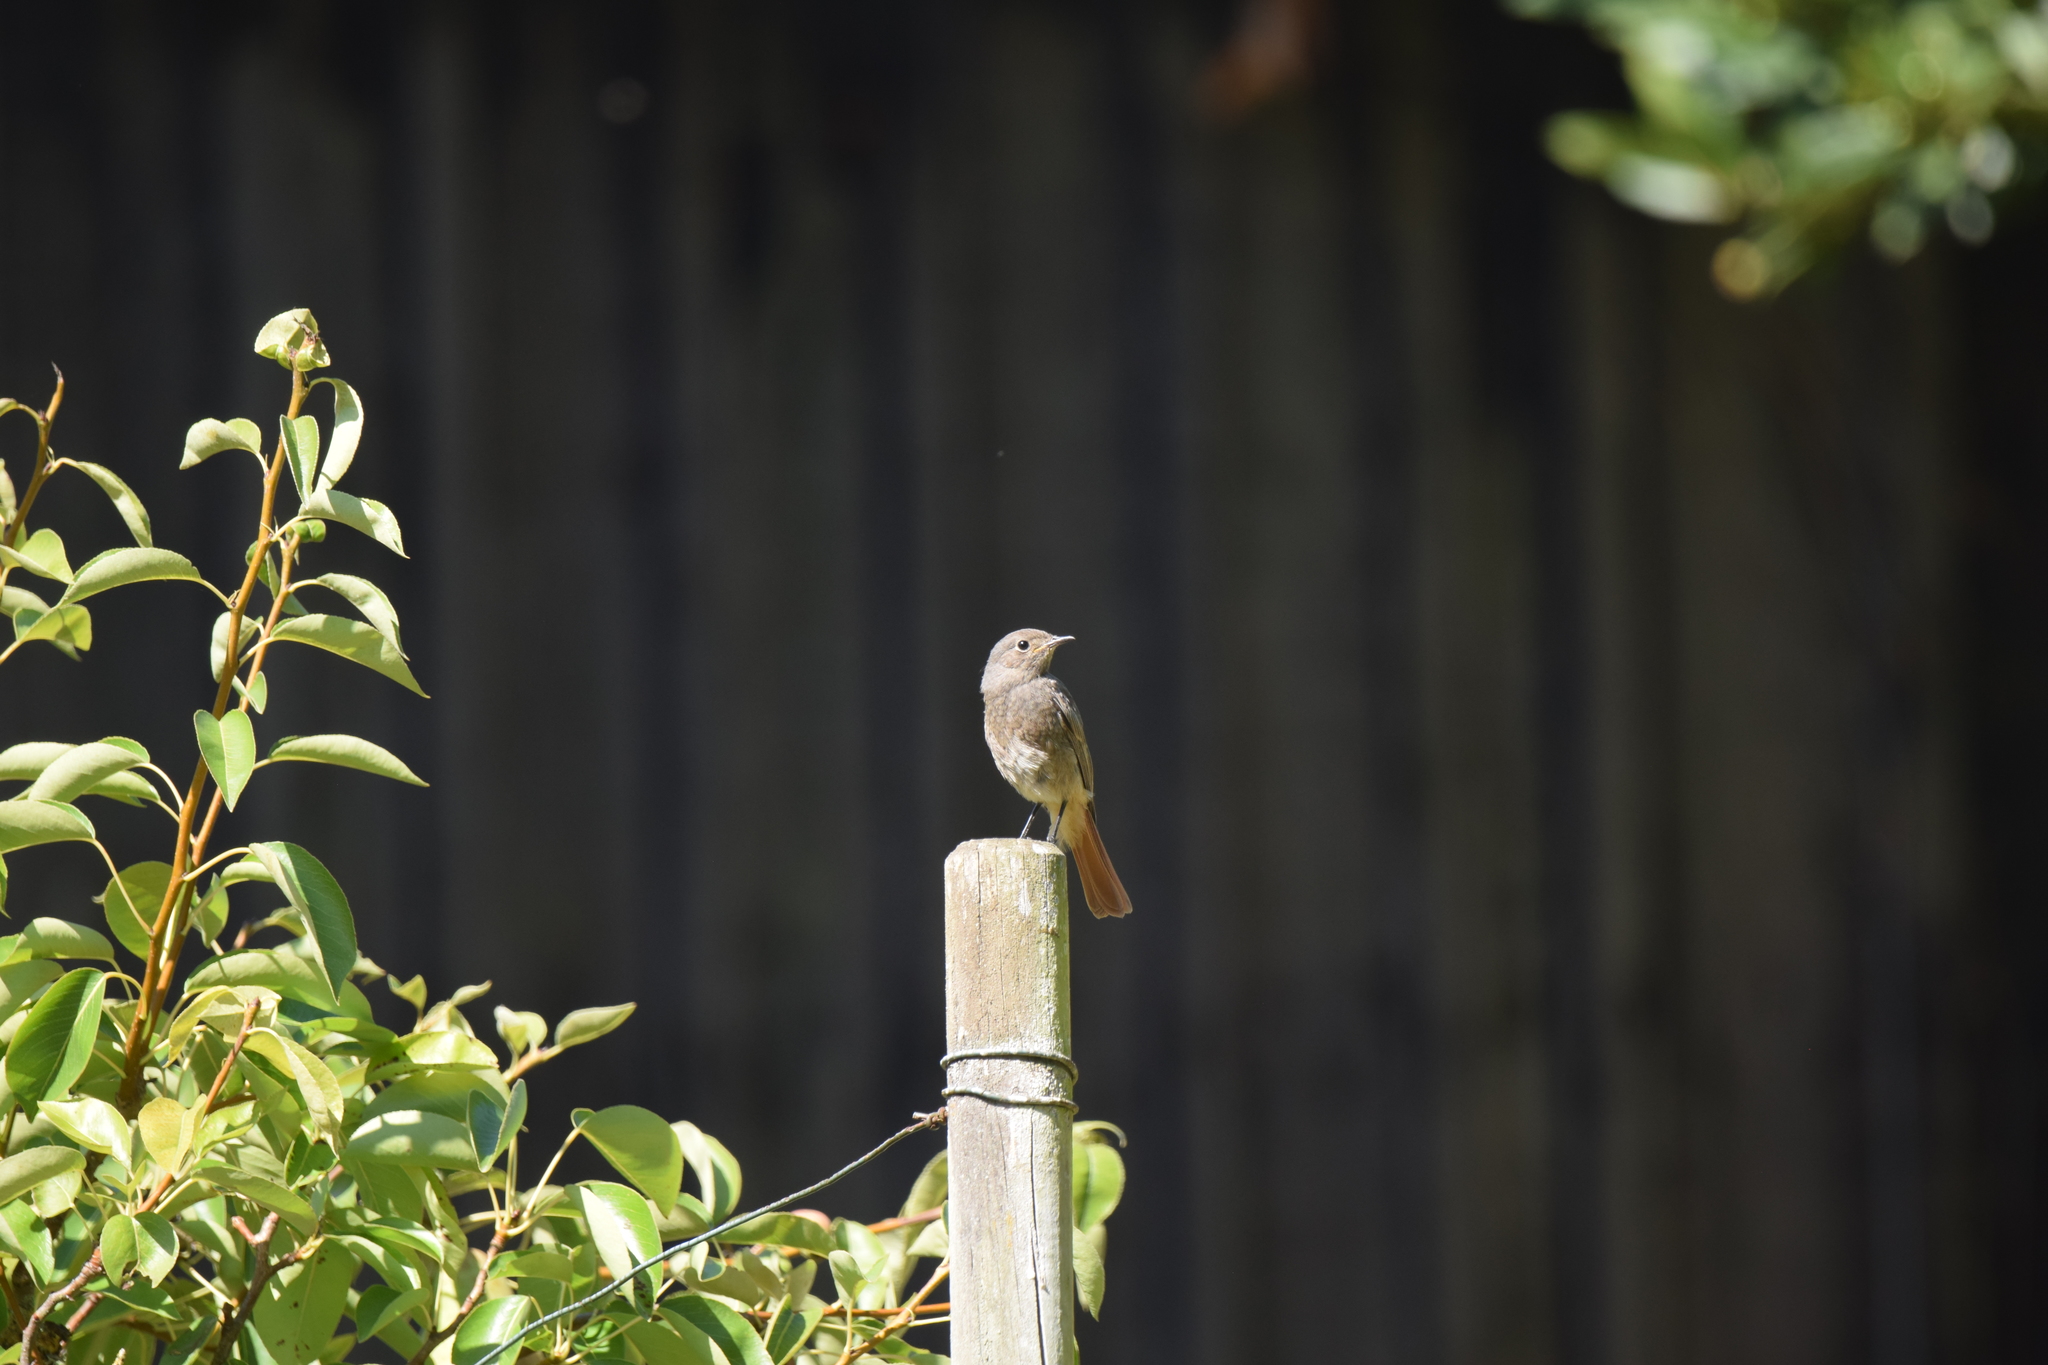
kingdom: Animalia
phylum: Chordata
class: Aves
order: Passeriformes
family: Muscicapidae
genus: Phoenicurus
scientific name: Phoenicurus ochruros
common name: Black redstart
